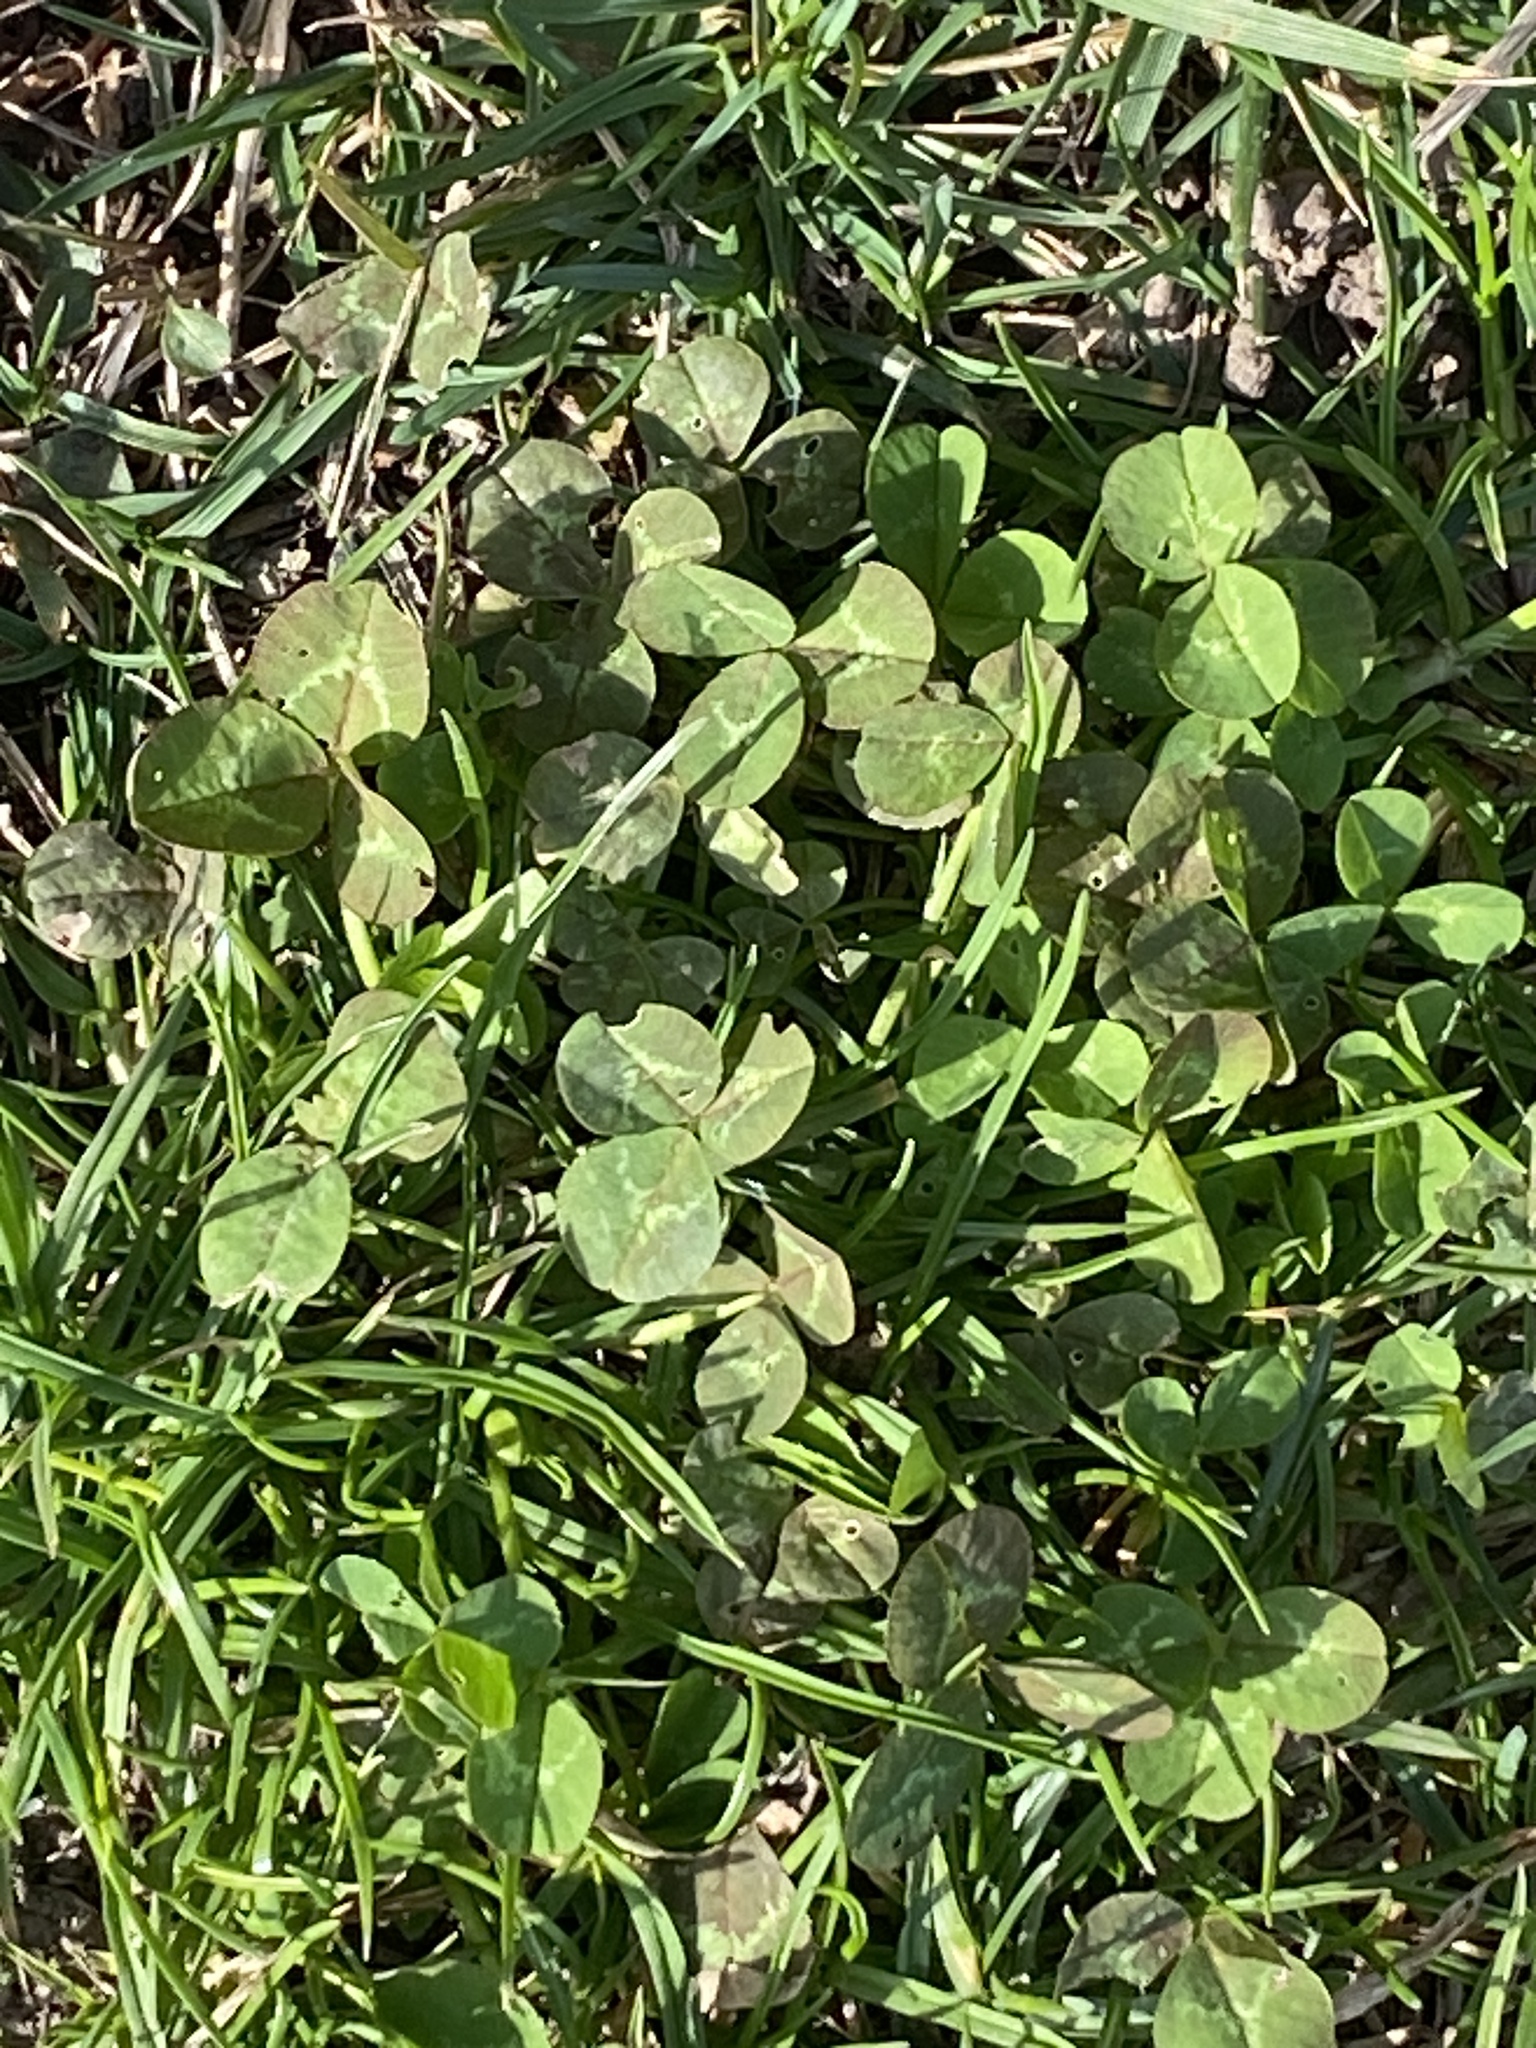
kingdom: Plantae
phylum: Tracheophyta
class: Magnoliopsida
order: Fabales
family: Fabaceae
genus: Trifolium
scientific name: Trifolium repens
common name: White clover
